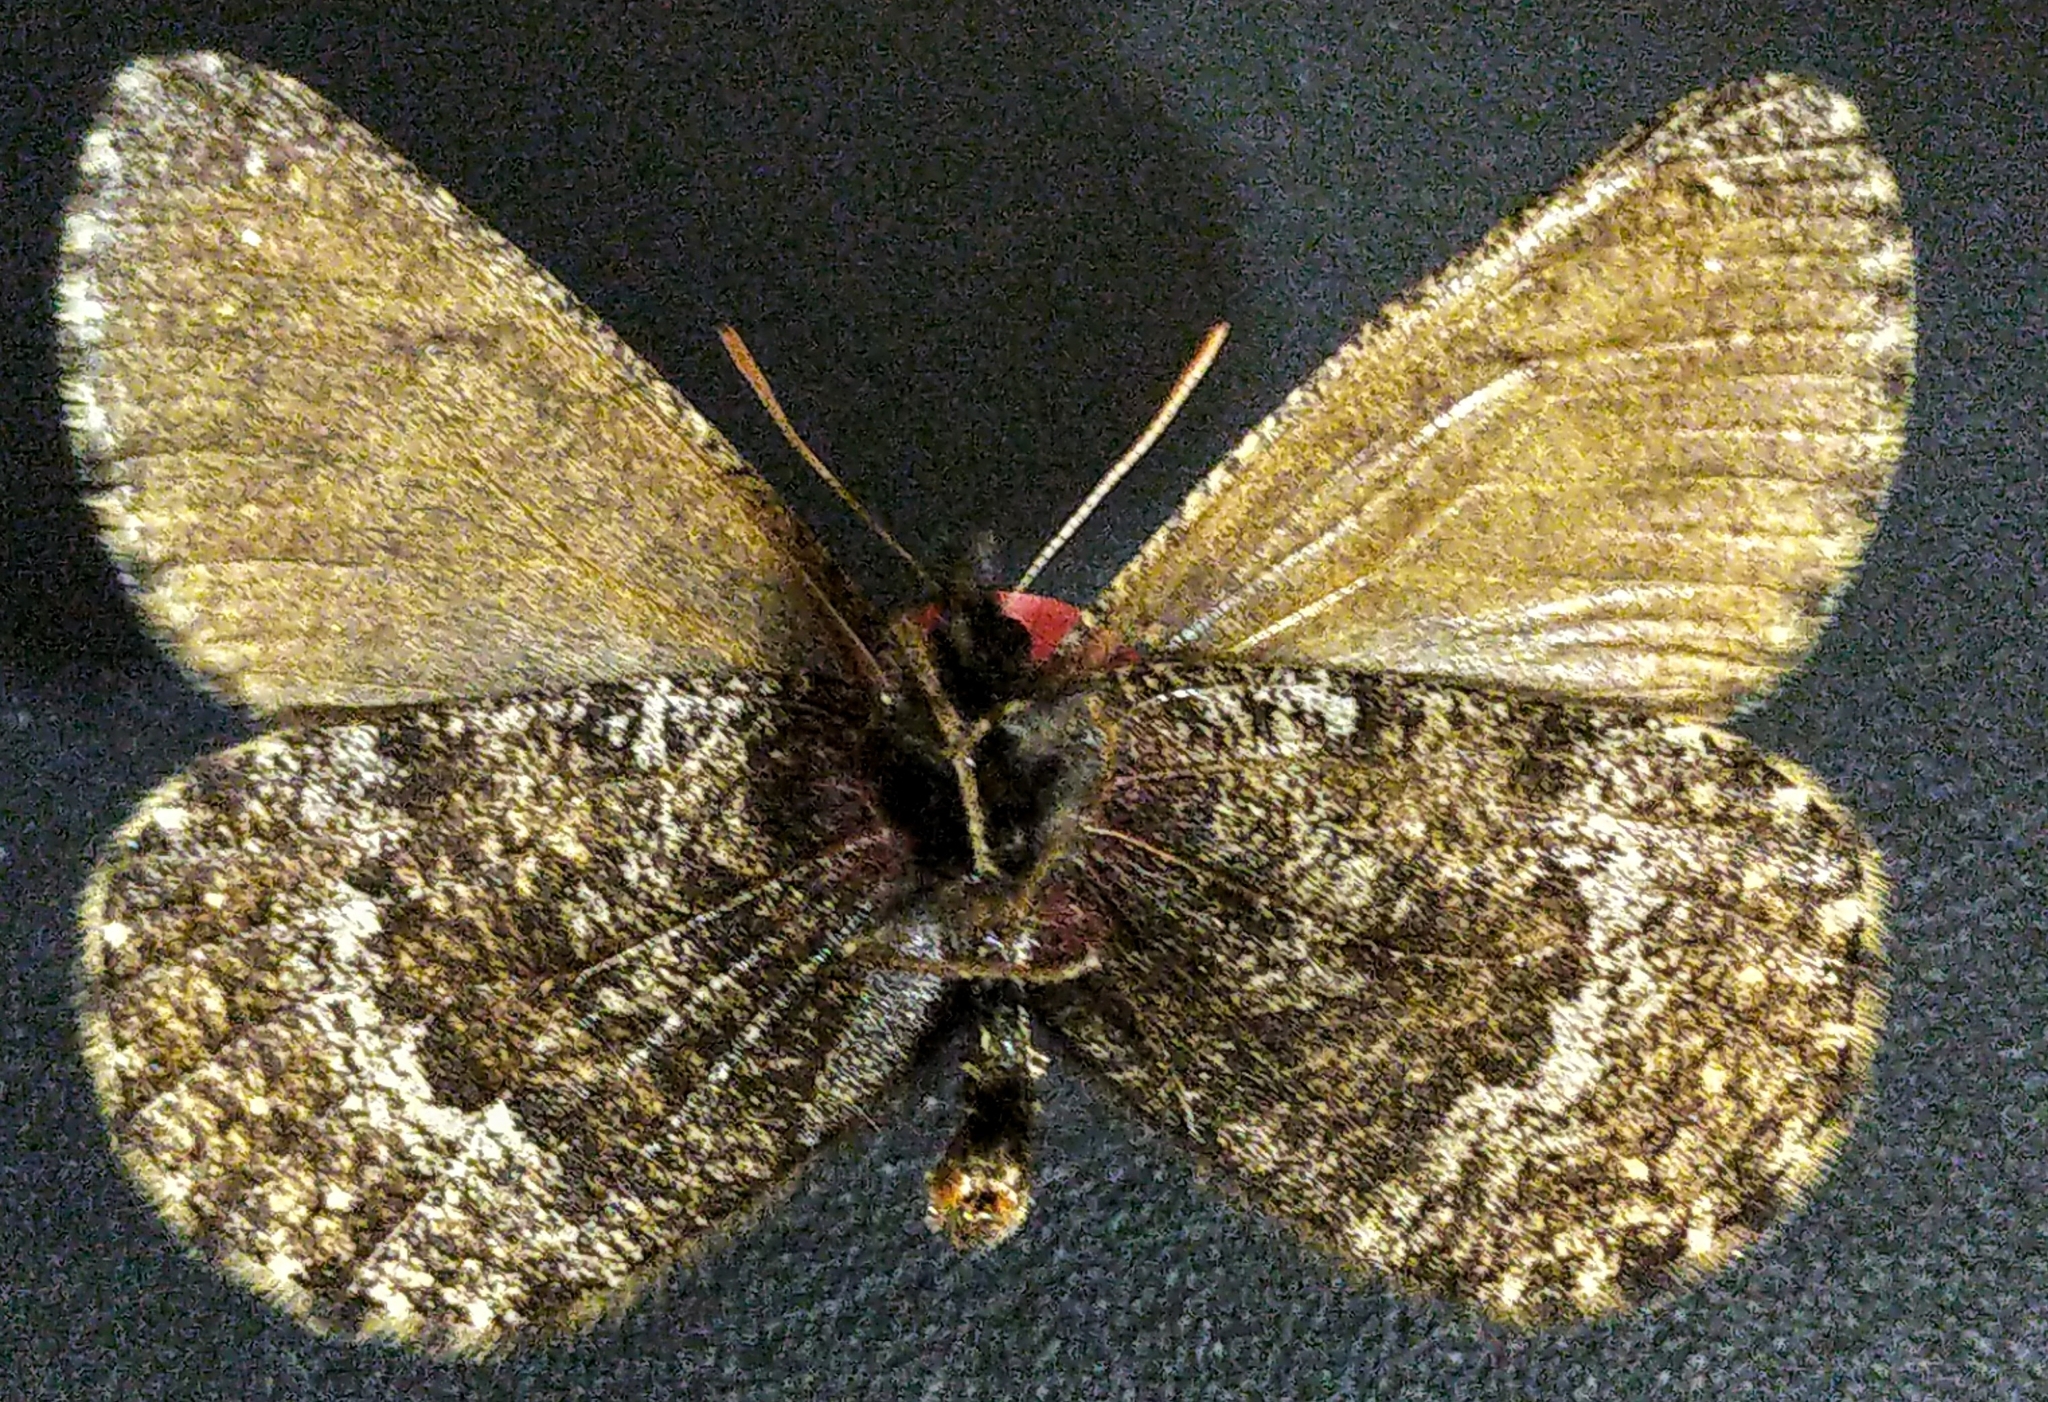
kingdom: Animalia
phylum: Arthropoda
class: Insecta
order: Lepidoptera
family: Nymphalidae
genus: Oeneis
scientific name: Oeneis bore
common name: Arctic grayling
